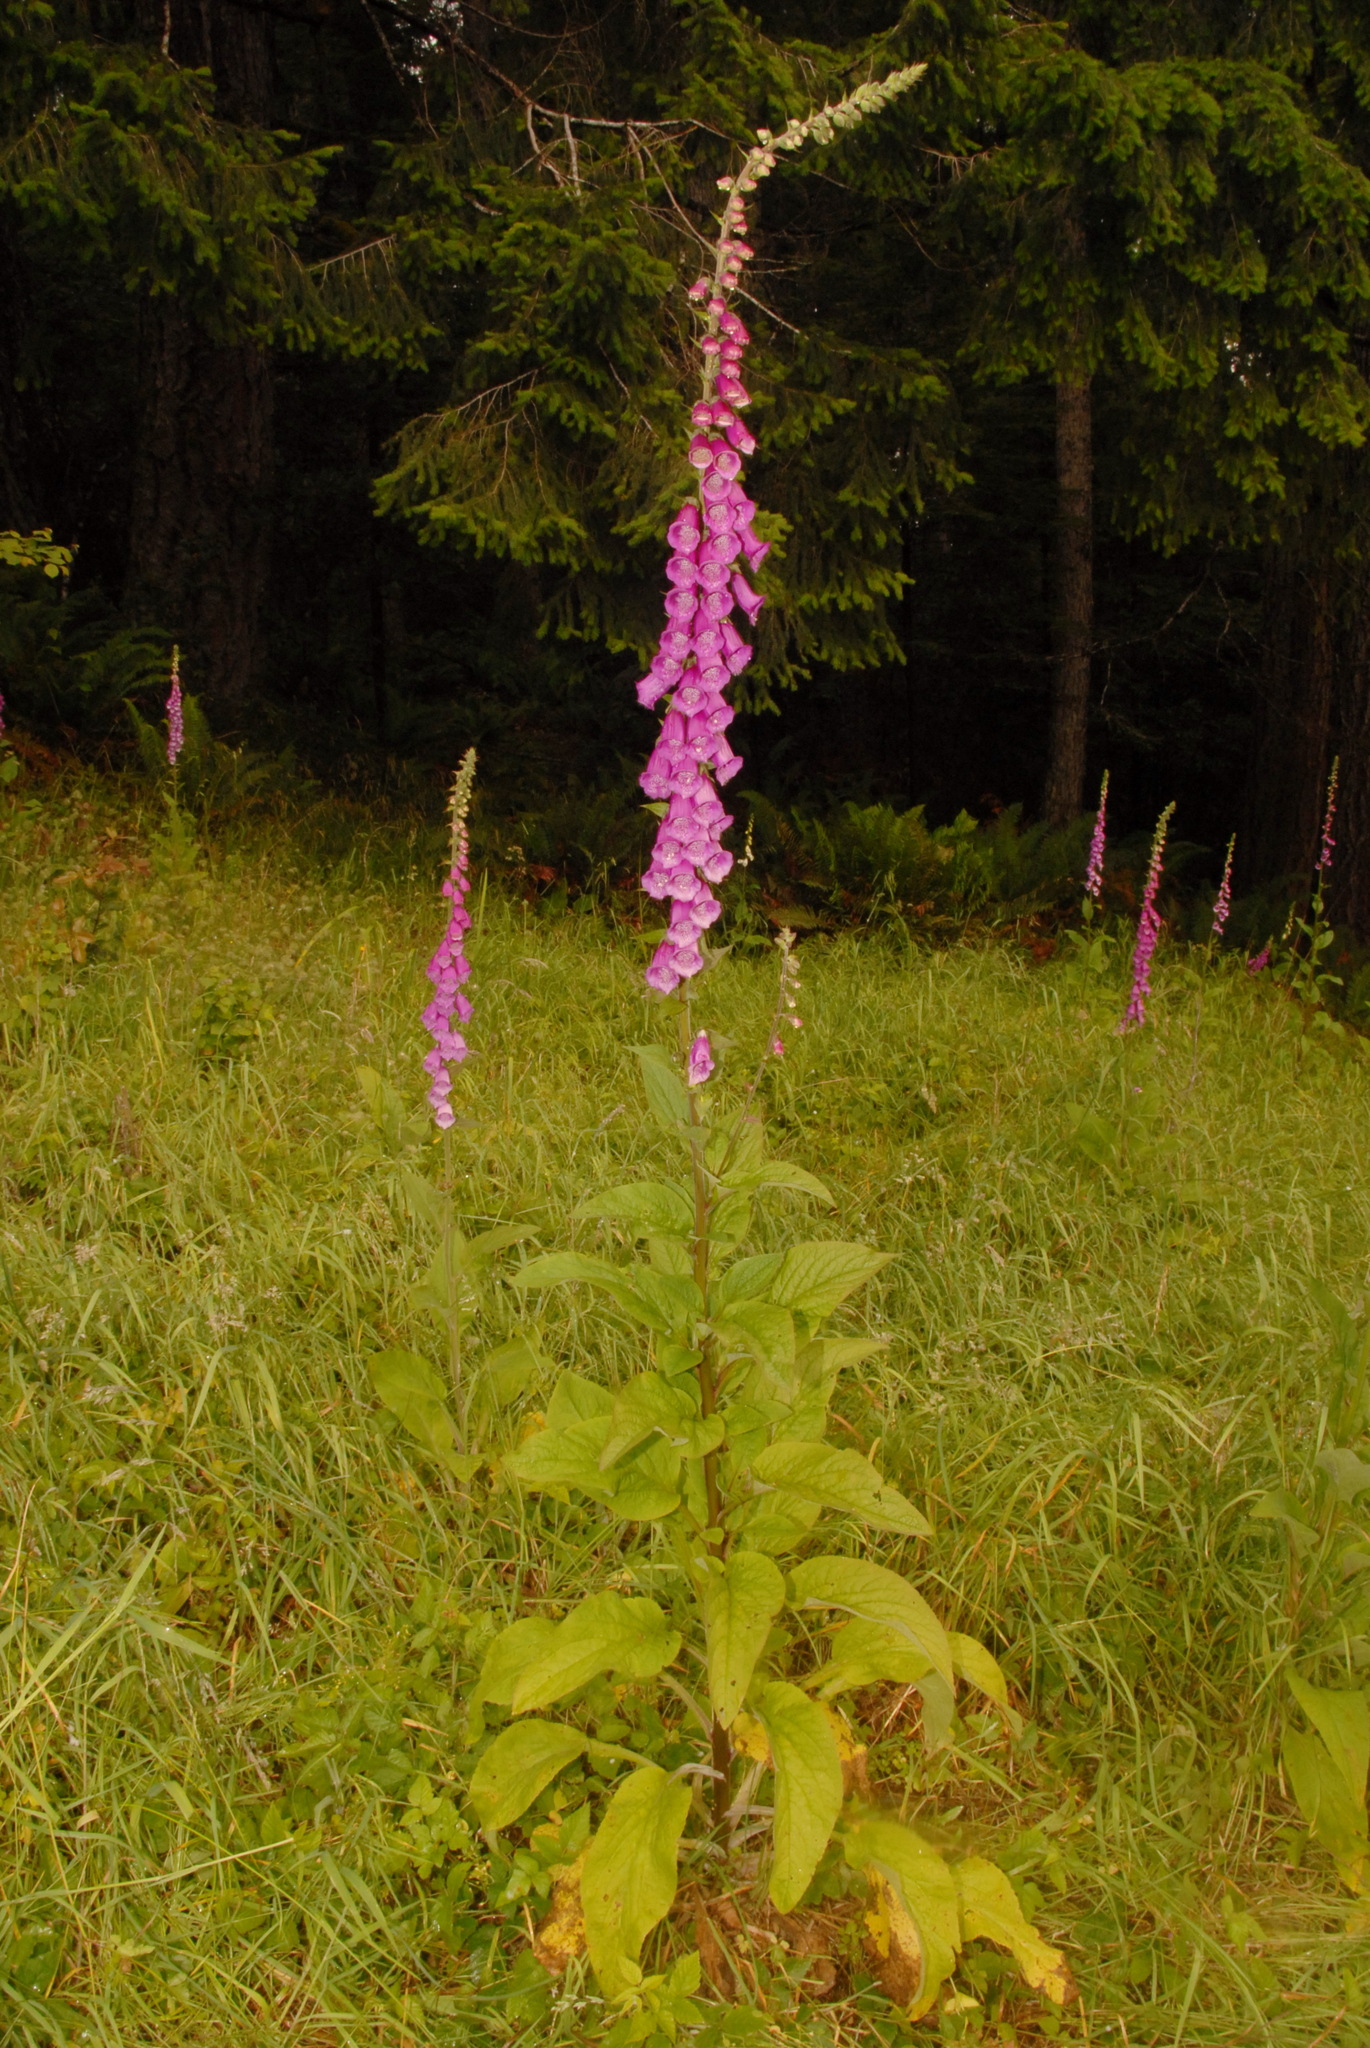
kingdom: Plantae
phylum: Tracheophyta
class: Magnoliopsida
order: Lamiales
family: Plantaginaceae
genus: Digitalis
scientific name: Digitalis purpurea
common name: Foxglove
